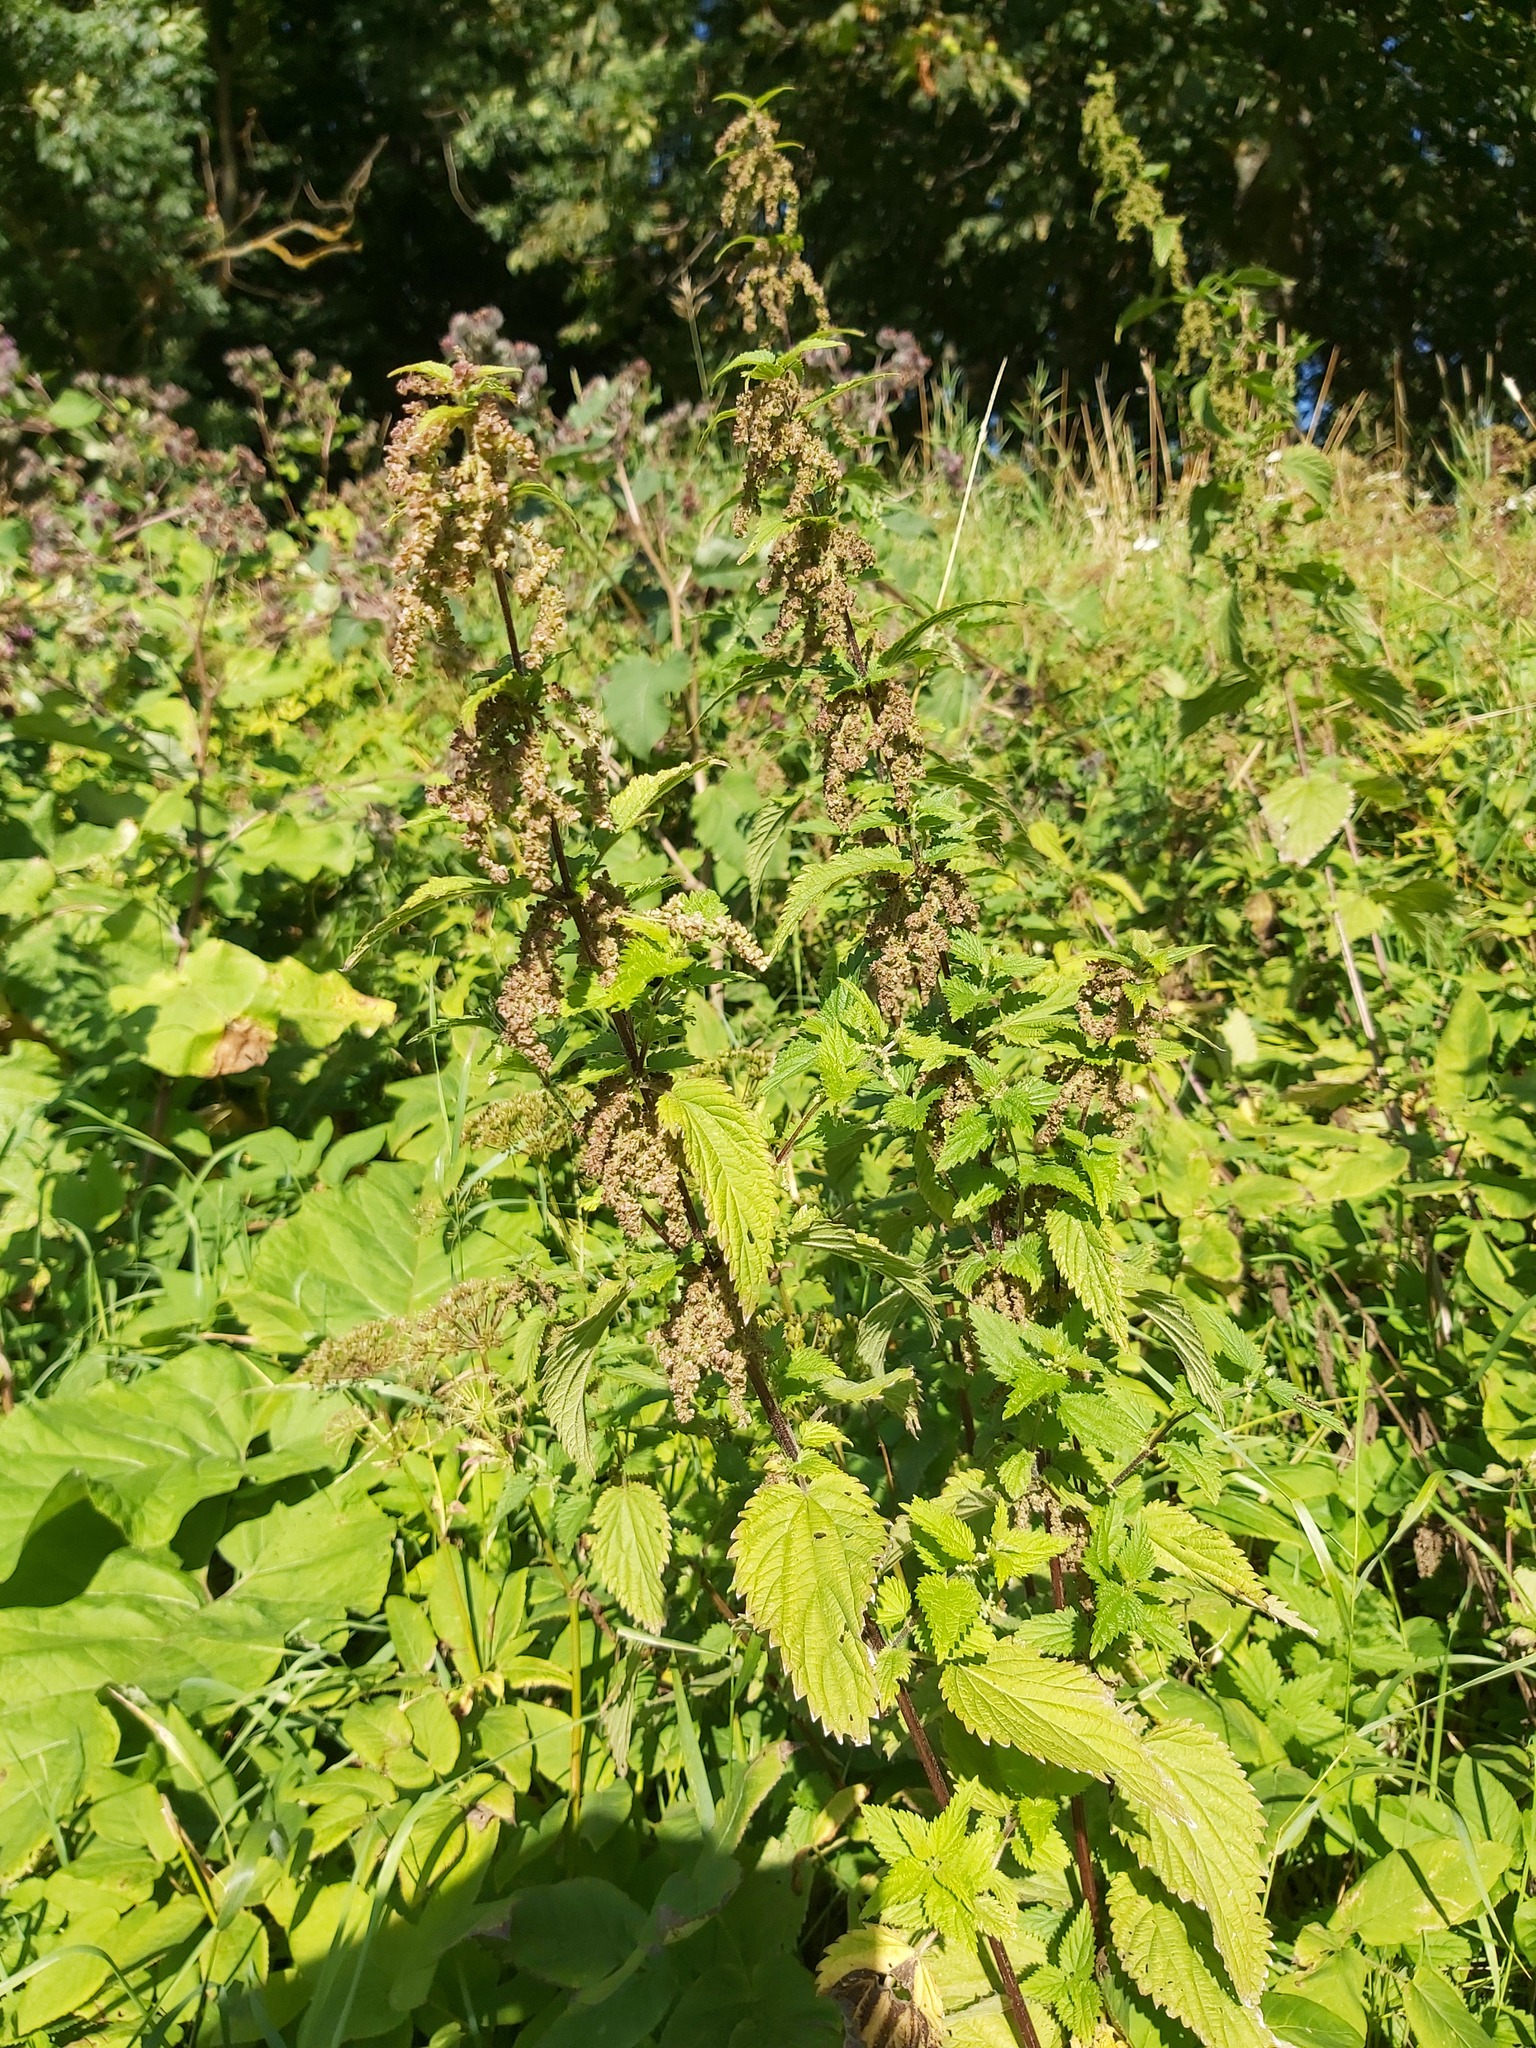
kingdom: Plantae
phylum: Tracheophyta
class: Magnoliopsida
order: Rosales
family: Urticaceae
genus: Urtica
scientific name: Urtica dioica
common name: Common nettle
